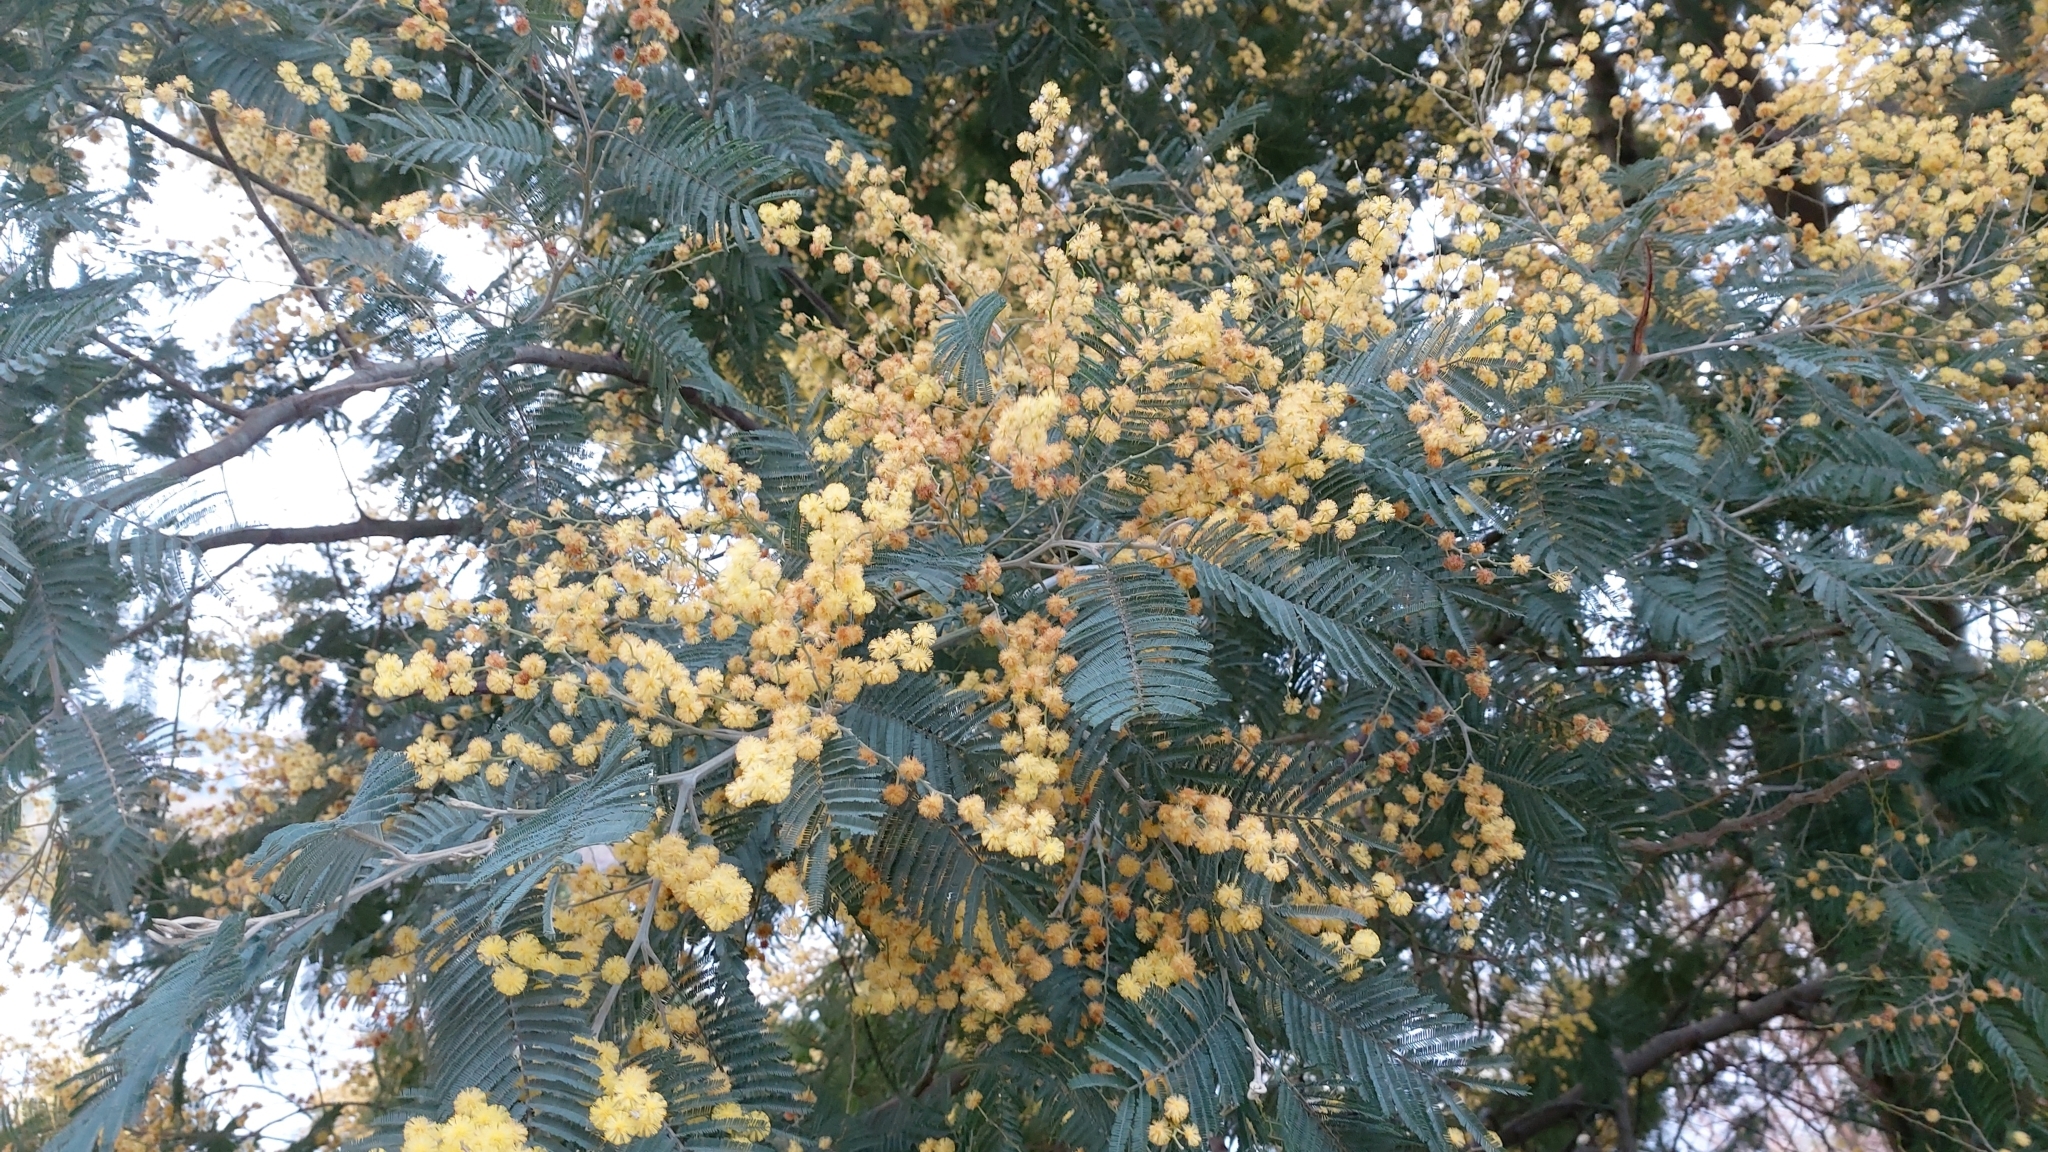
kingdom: Plantae
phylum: Tracheophyta
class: Magnoliopsida
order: Fabales
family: Fabaceae
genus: Acacia
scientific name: Acacia dealbata
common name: Silver wattle
